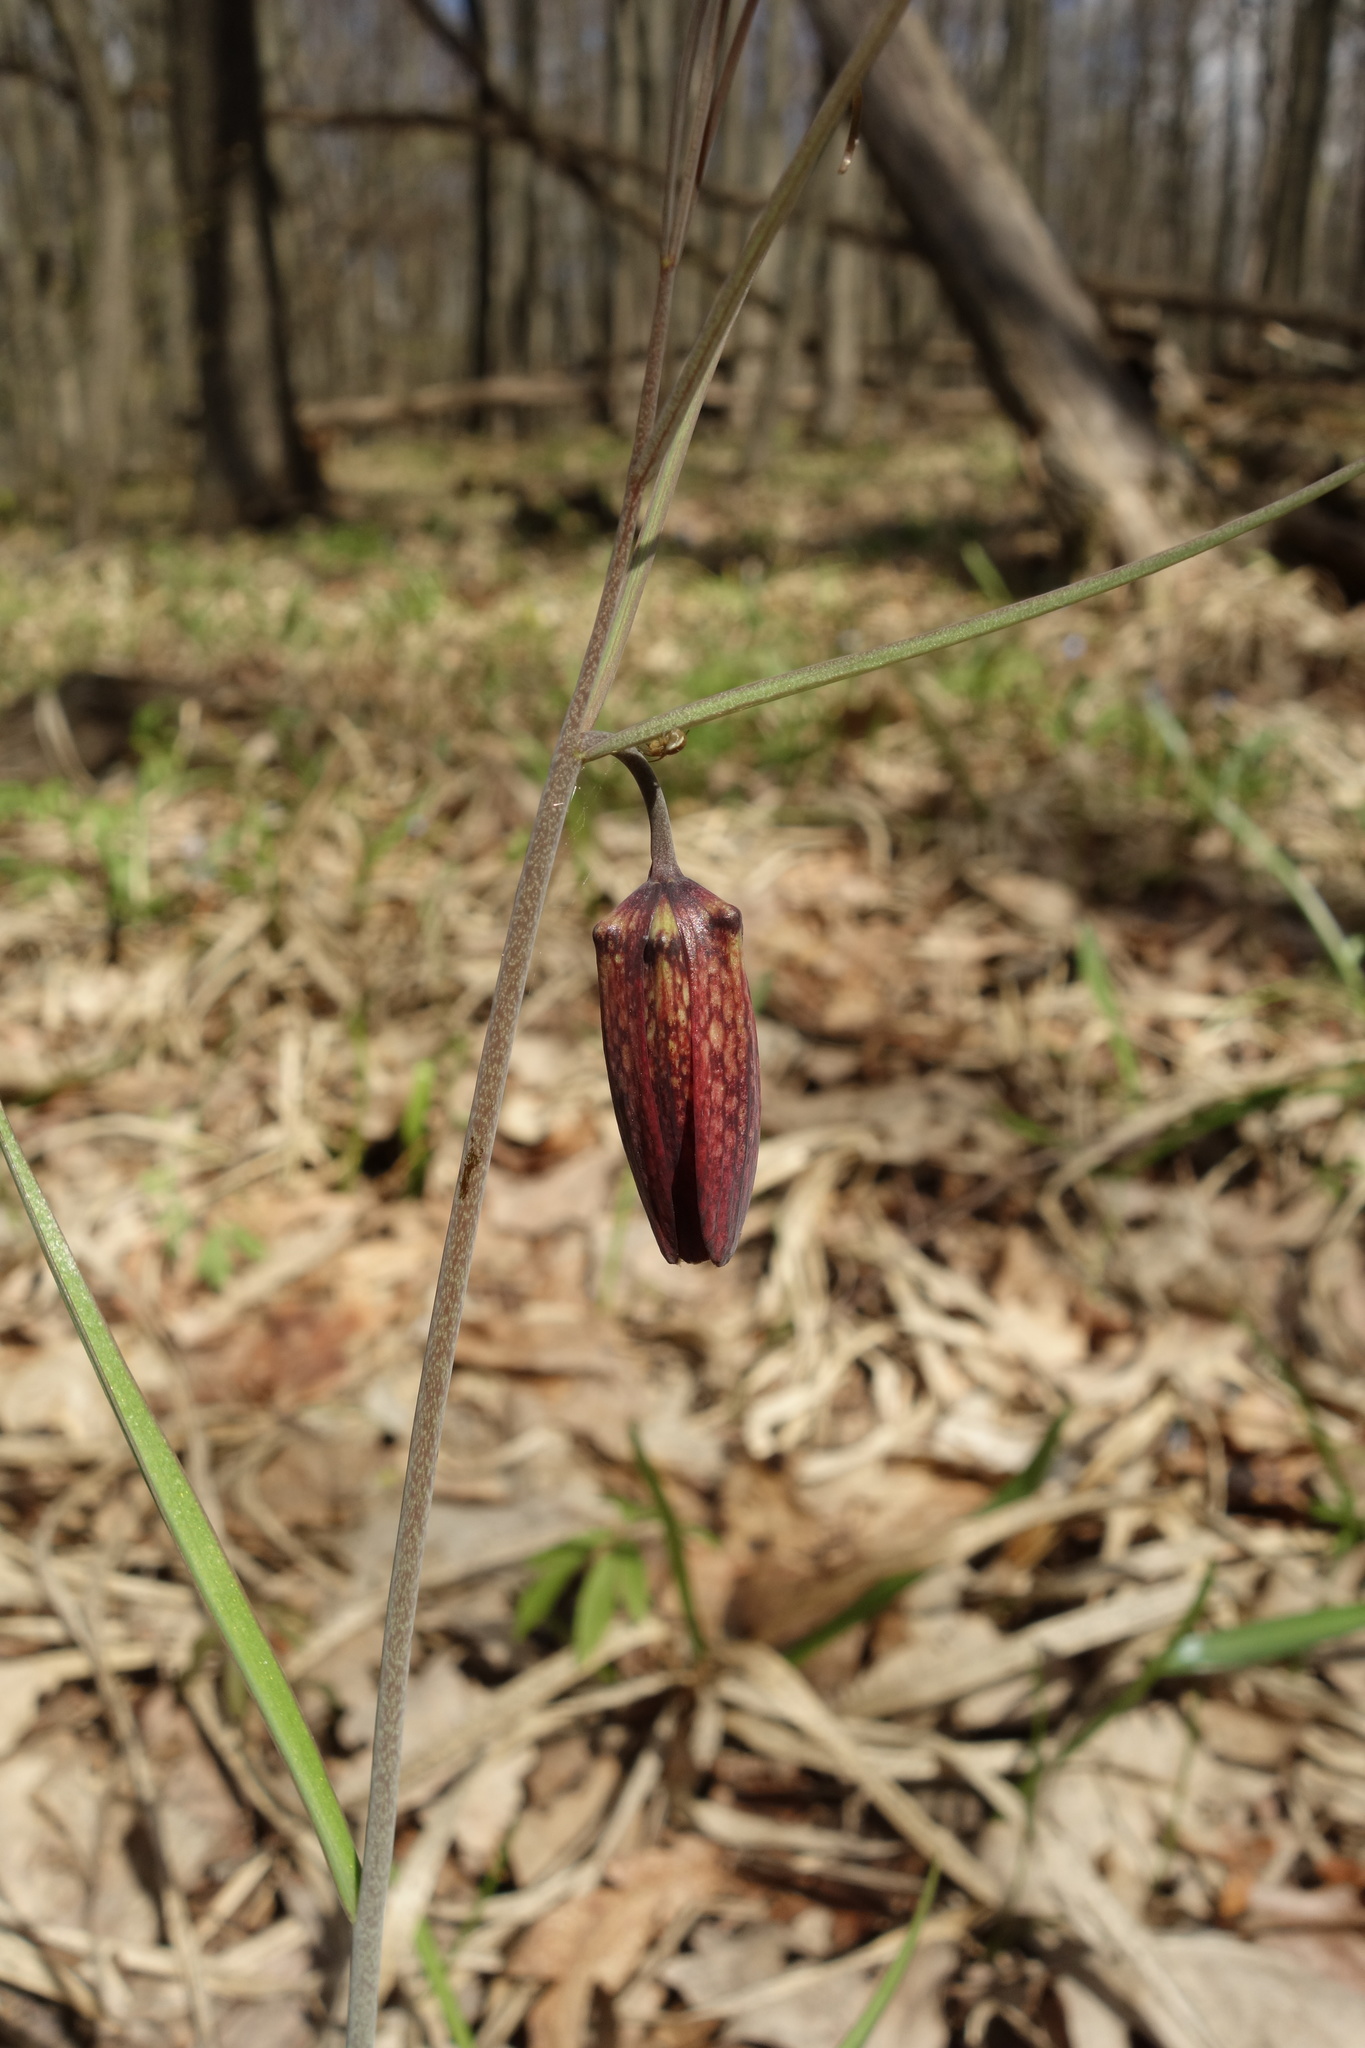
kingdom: Plantae
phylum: Tracheophyta
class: Liliopsida
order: Liliales
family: Liliaceae
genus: Fritillaria
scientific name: Fritillaria ruthenica
